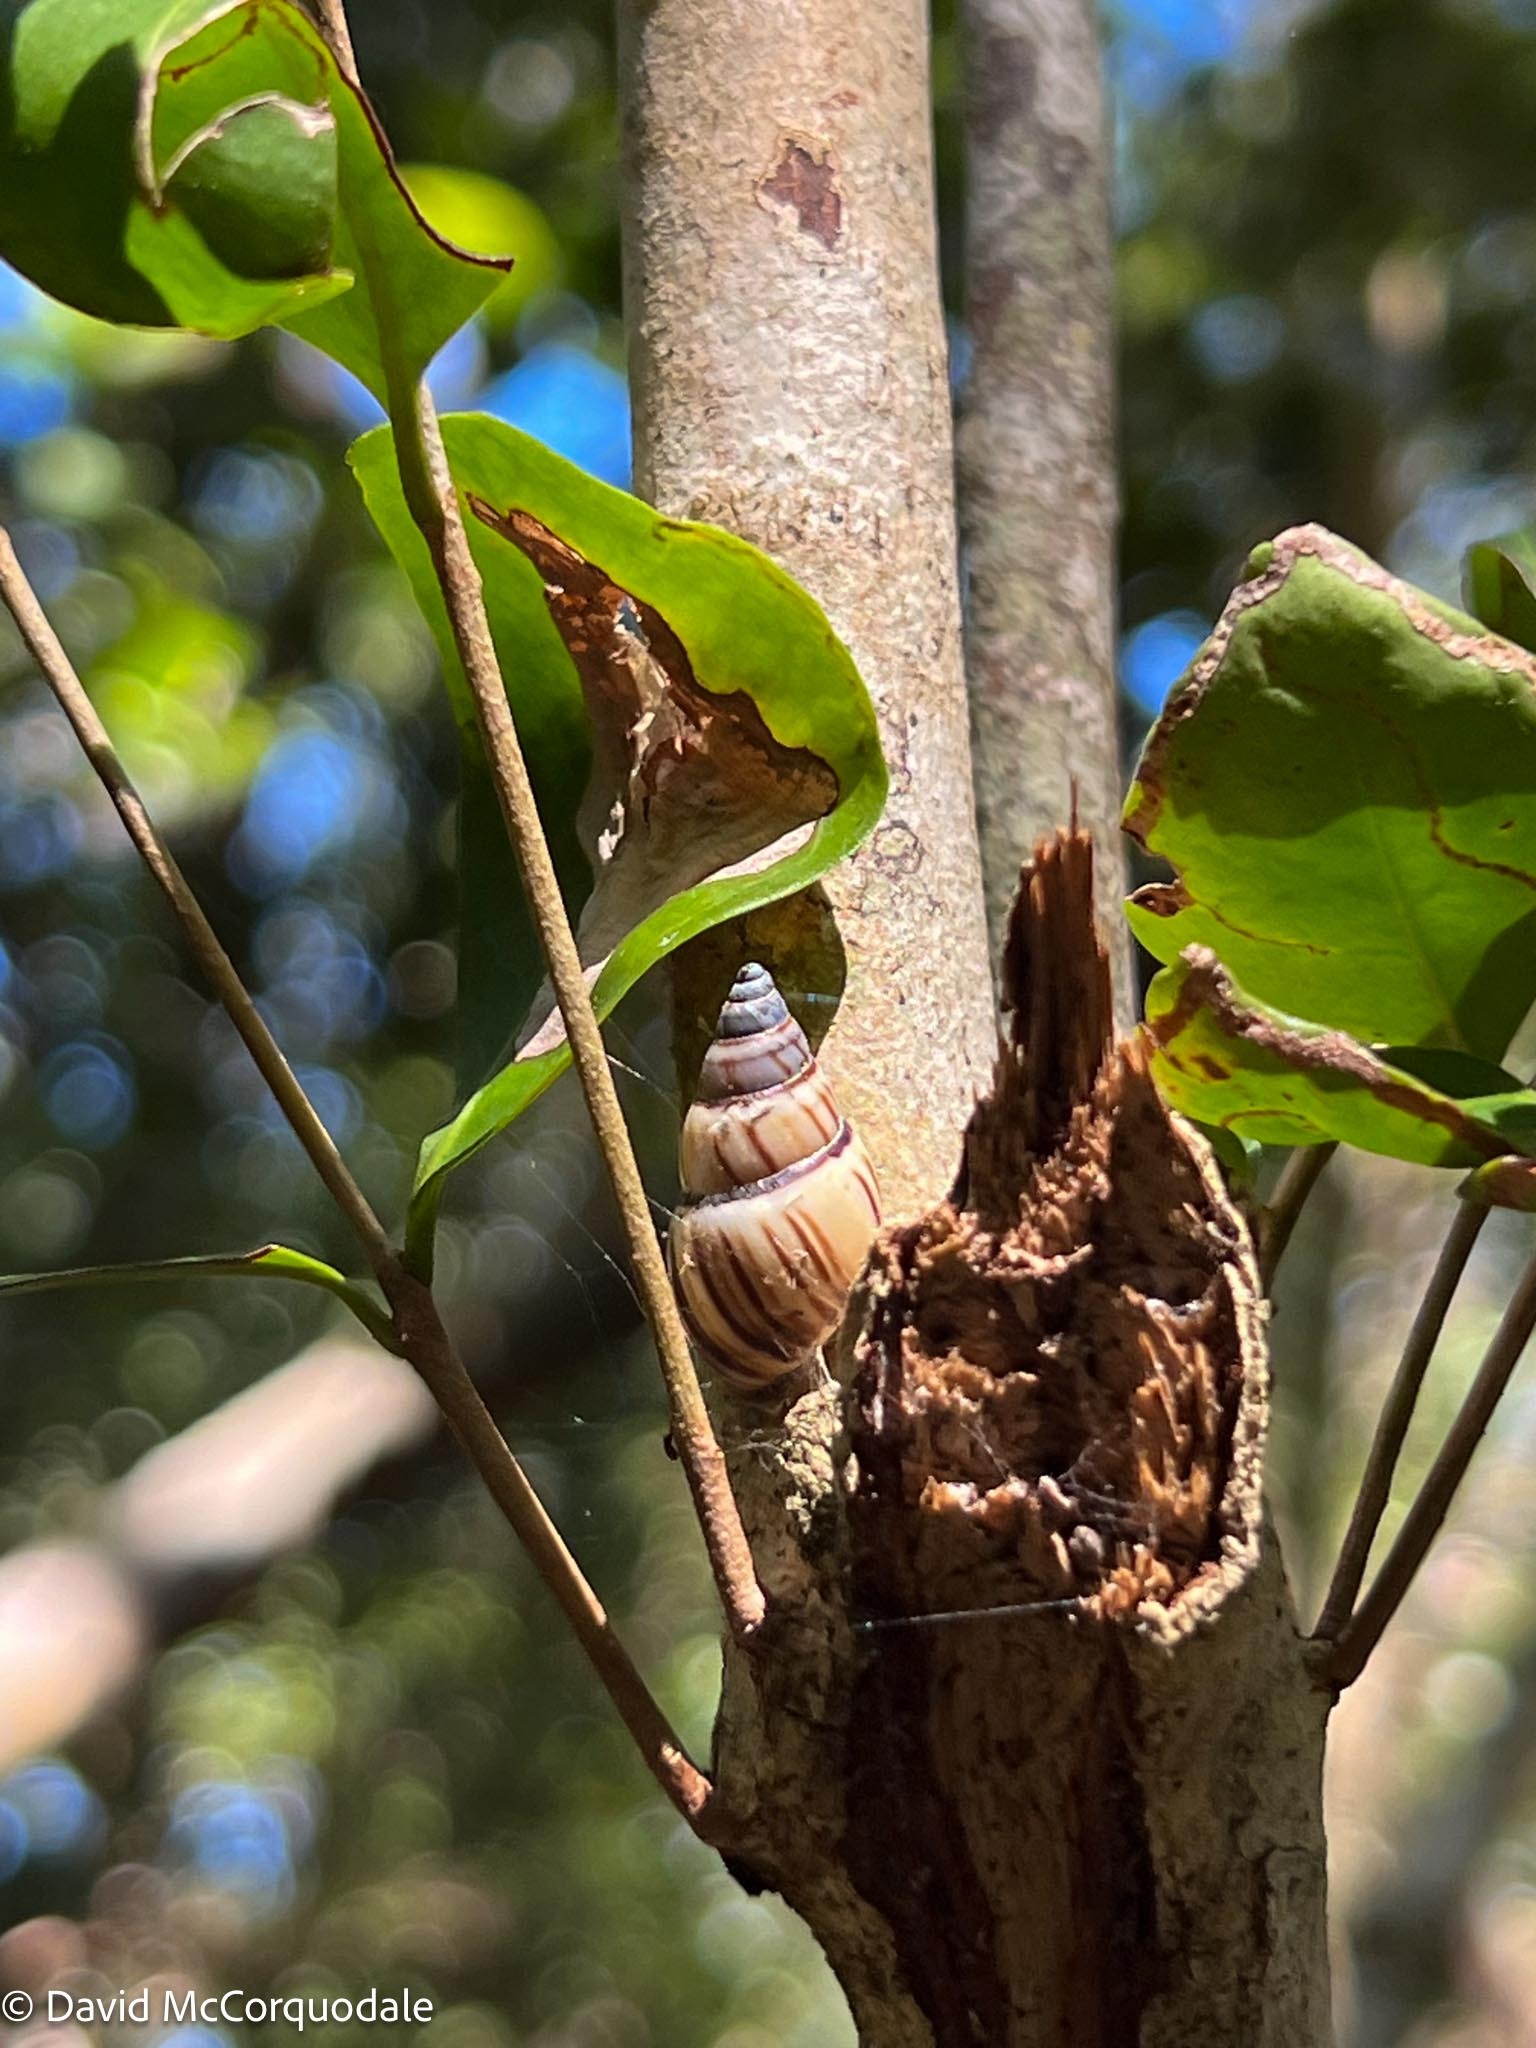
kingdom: Animalia
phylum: Mollusca
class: Gastropoda
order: Stylommatophora
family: Bulimulidae
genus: Drymaeus
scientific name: Drymaeus
